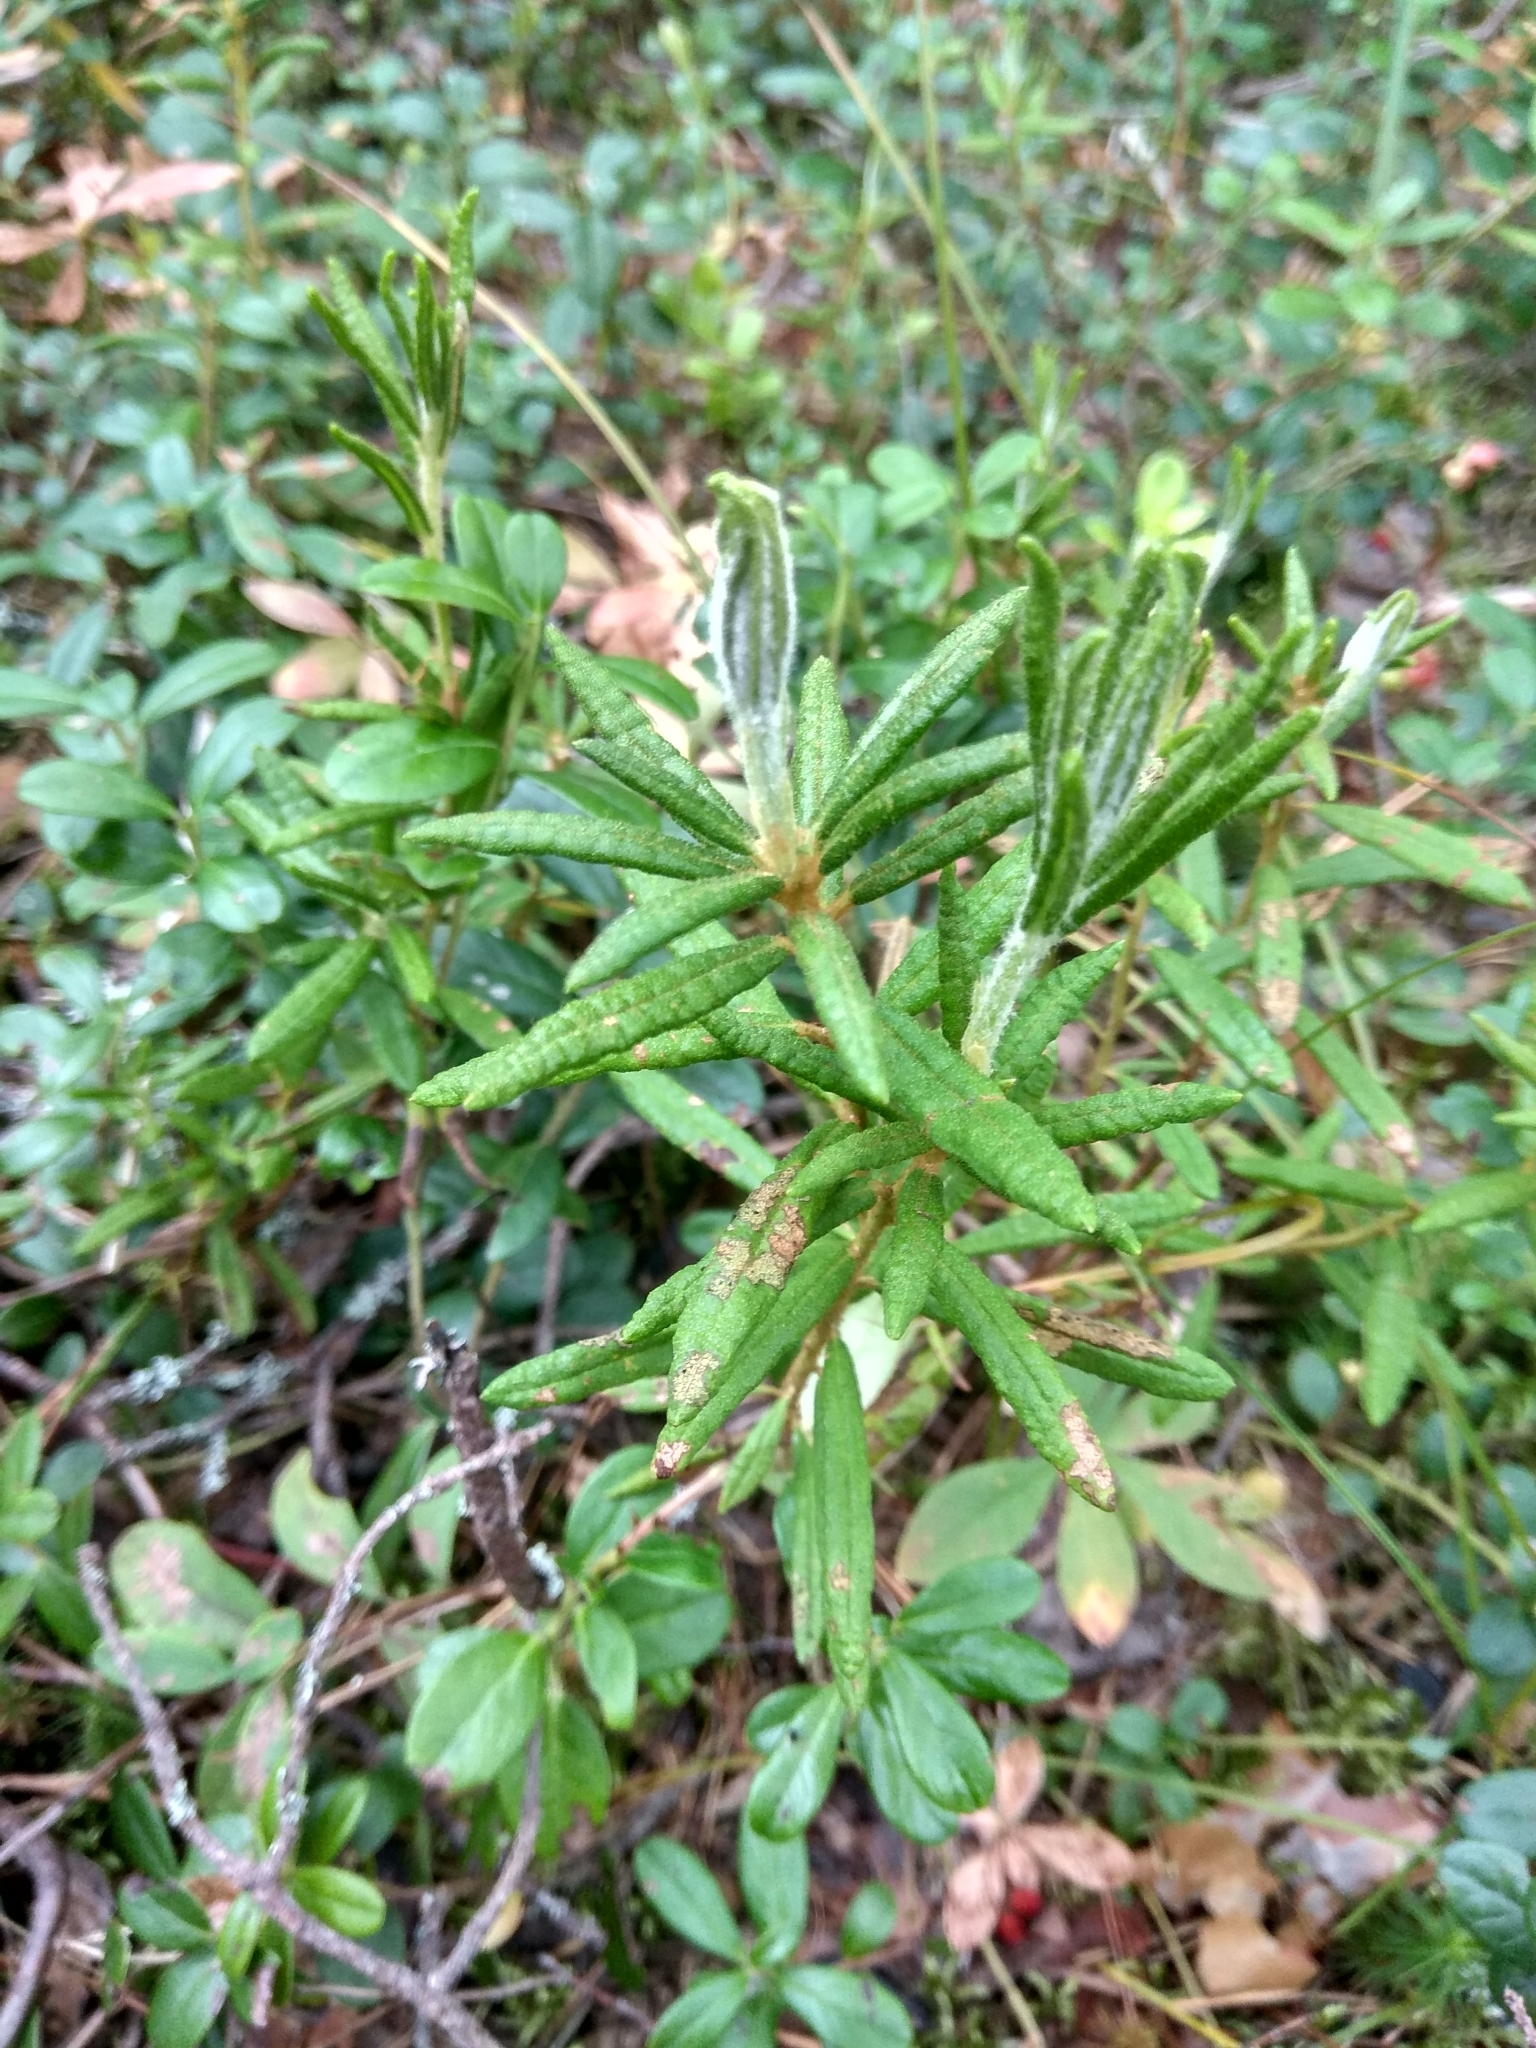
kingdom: Plantae
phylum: Tracheophyta
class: Magnoliopsida
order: Ericales
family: Ericaceae
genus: Rhododendron
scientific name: Rhododendron tomentosum
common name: Marsh labrador tea
